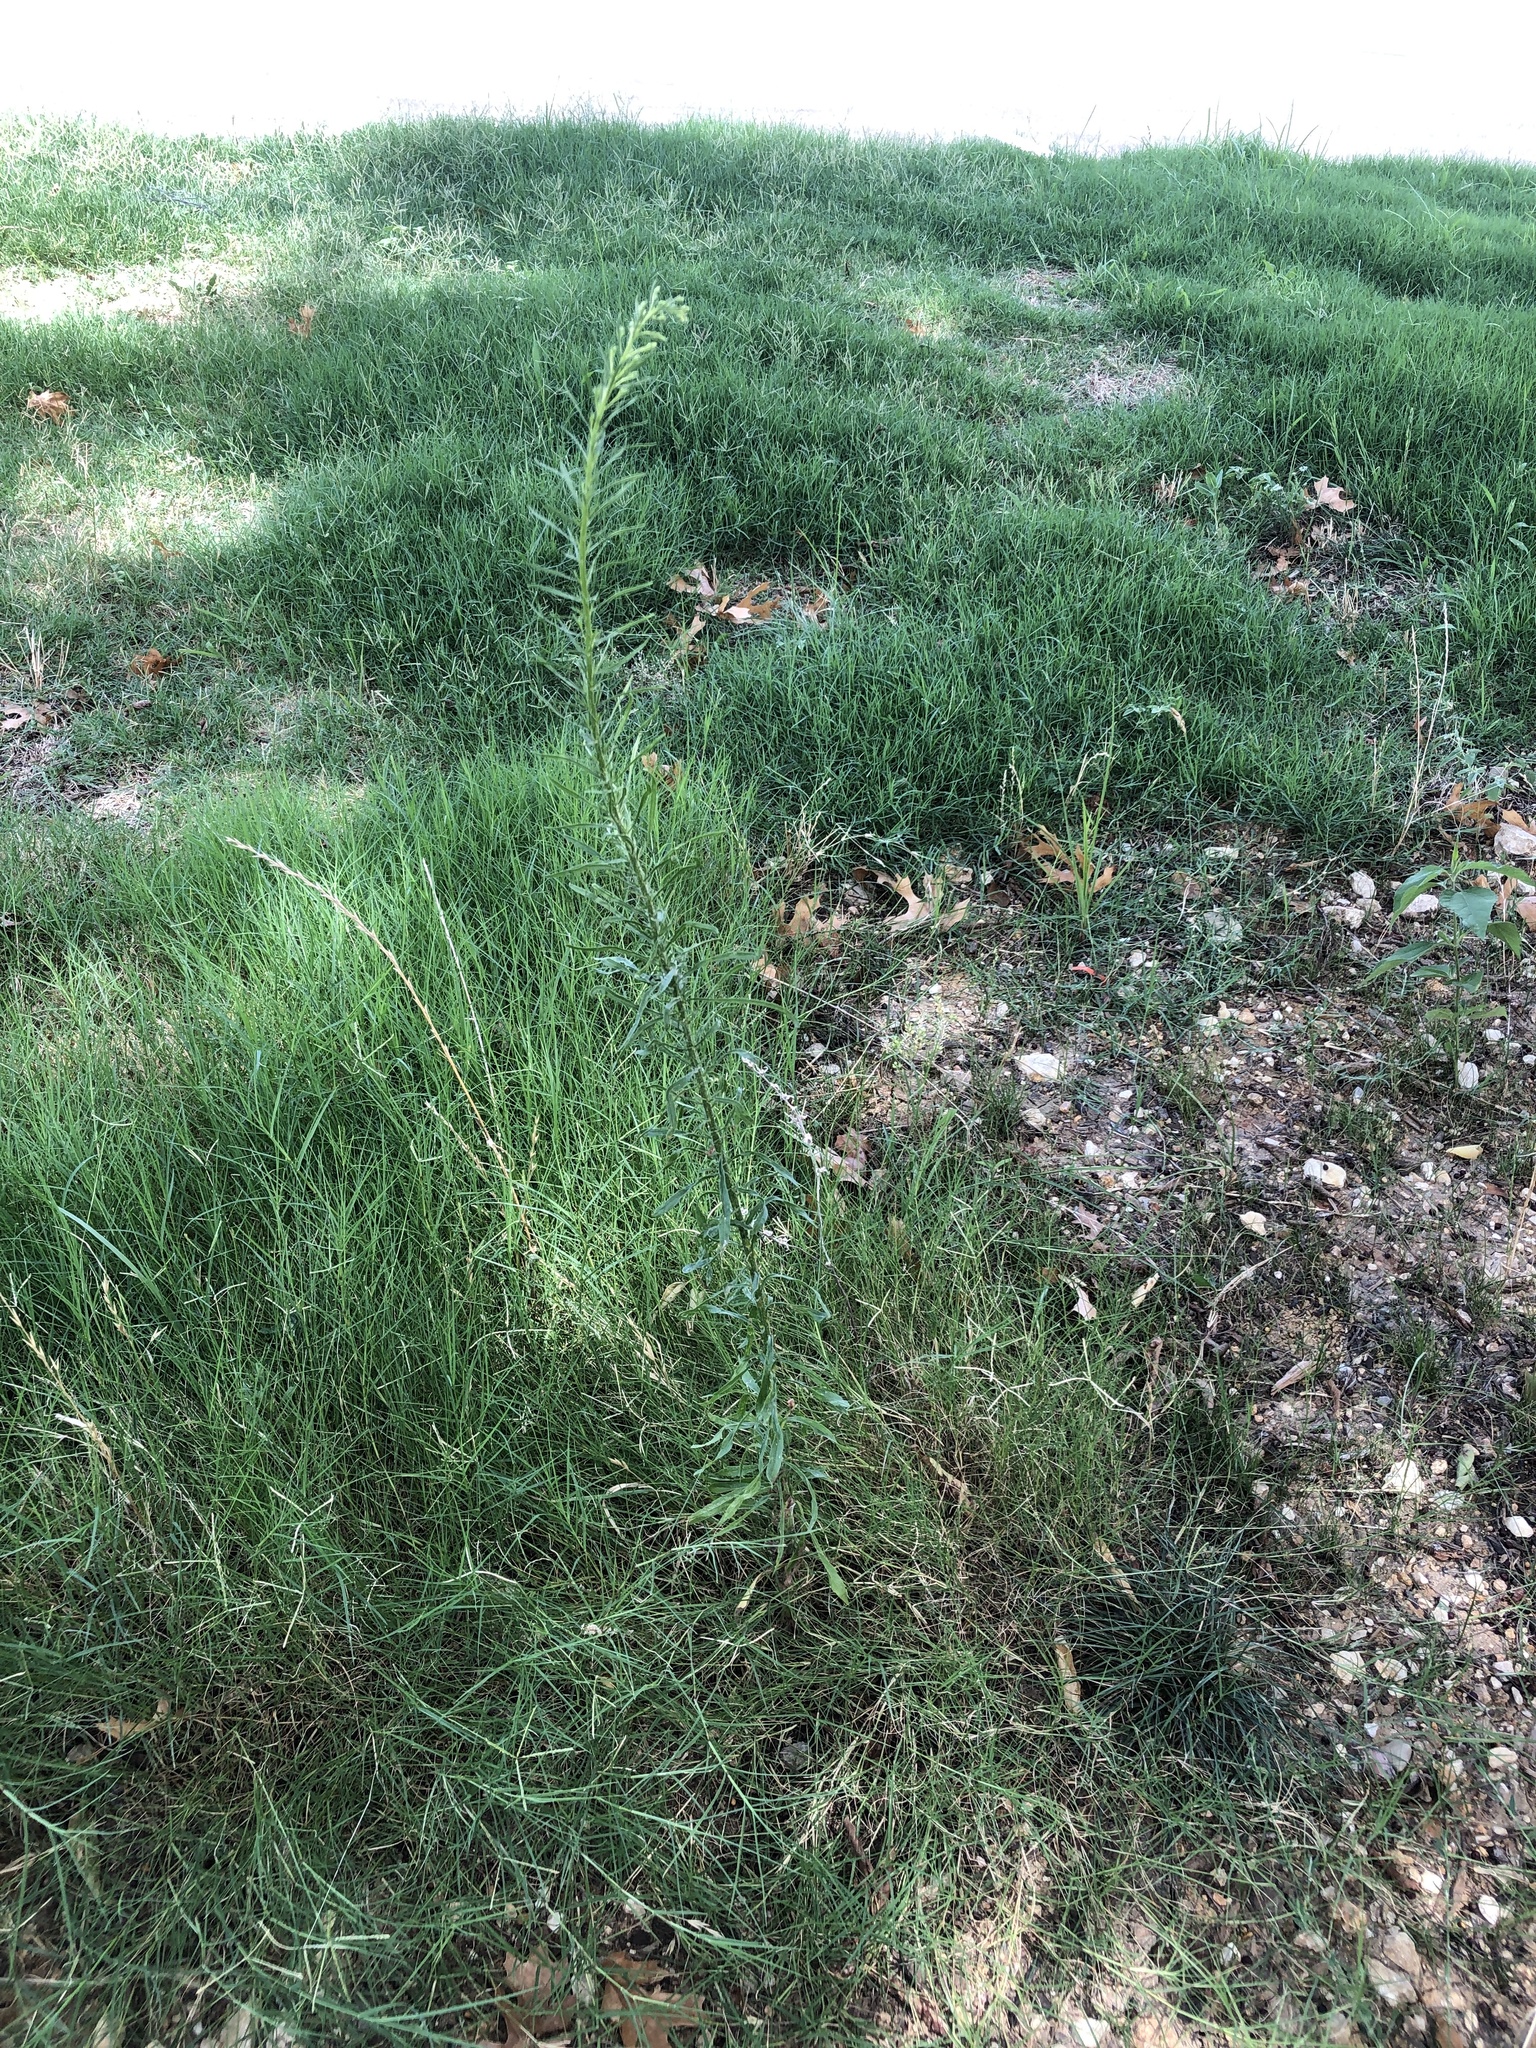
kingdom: Plantae
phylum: Tracheophyta
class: Magnoliopsida
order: Asterales
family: Asteraceae
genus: Erigeron
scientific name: Erigeron canadensis
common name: Canadian fleabane
